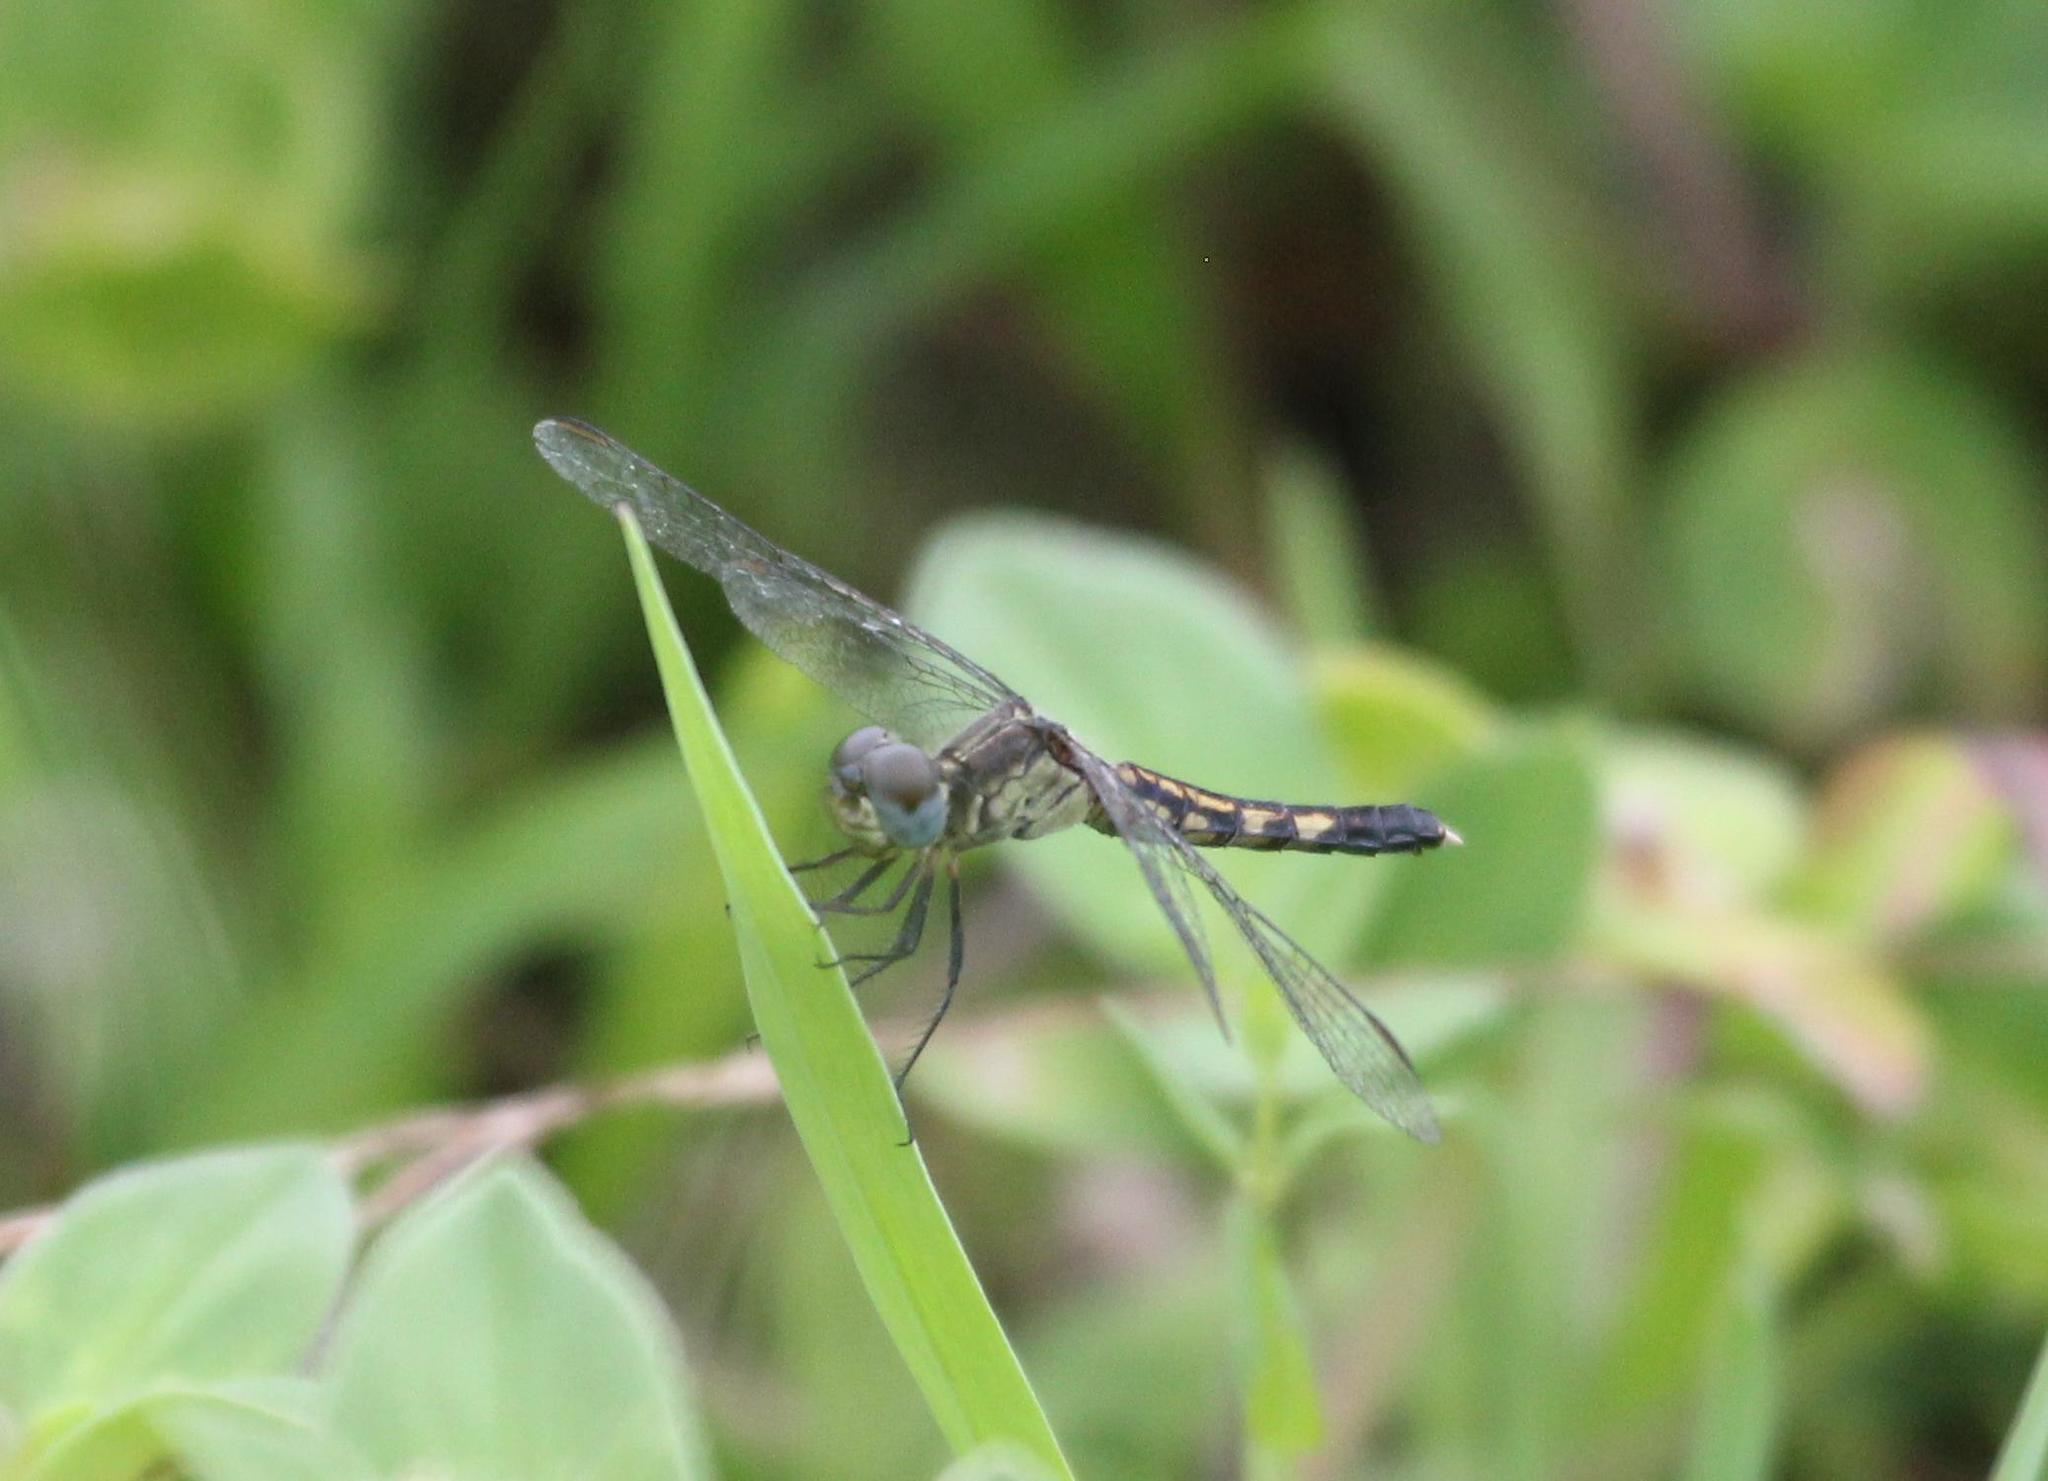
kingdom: Animalia
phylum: Arthropoda
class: Insecta
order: Odonata
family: Libellulidae
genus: Erythrodiplax
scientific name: Erythrodiplax minuscula
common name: Little blue dragonlet
